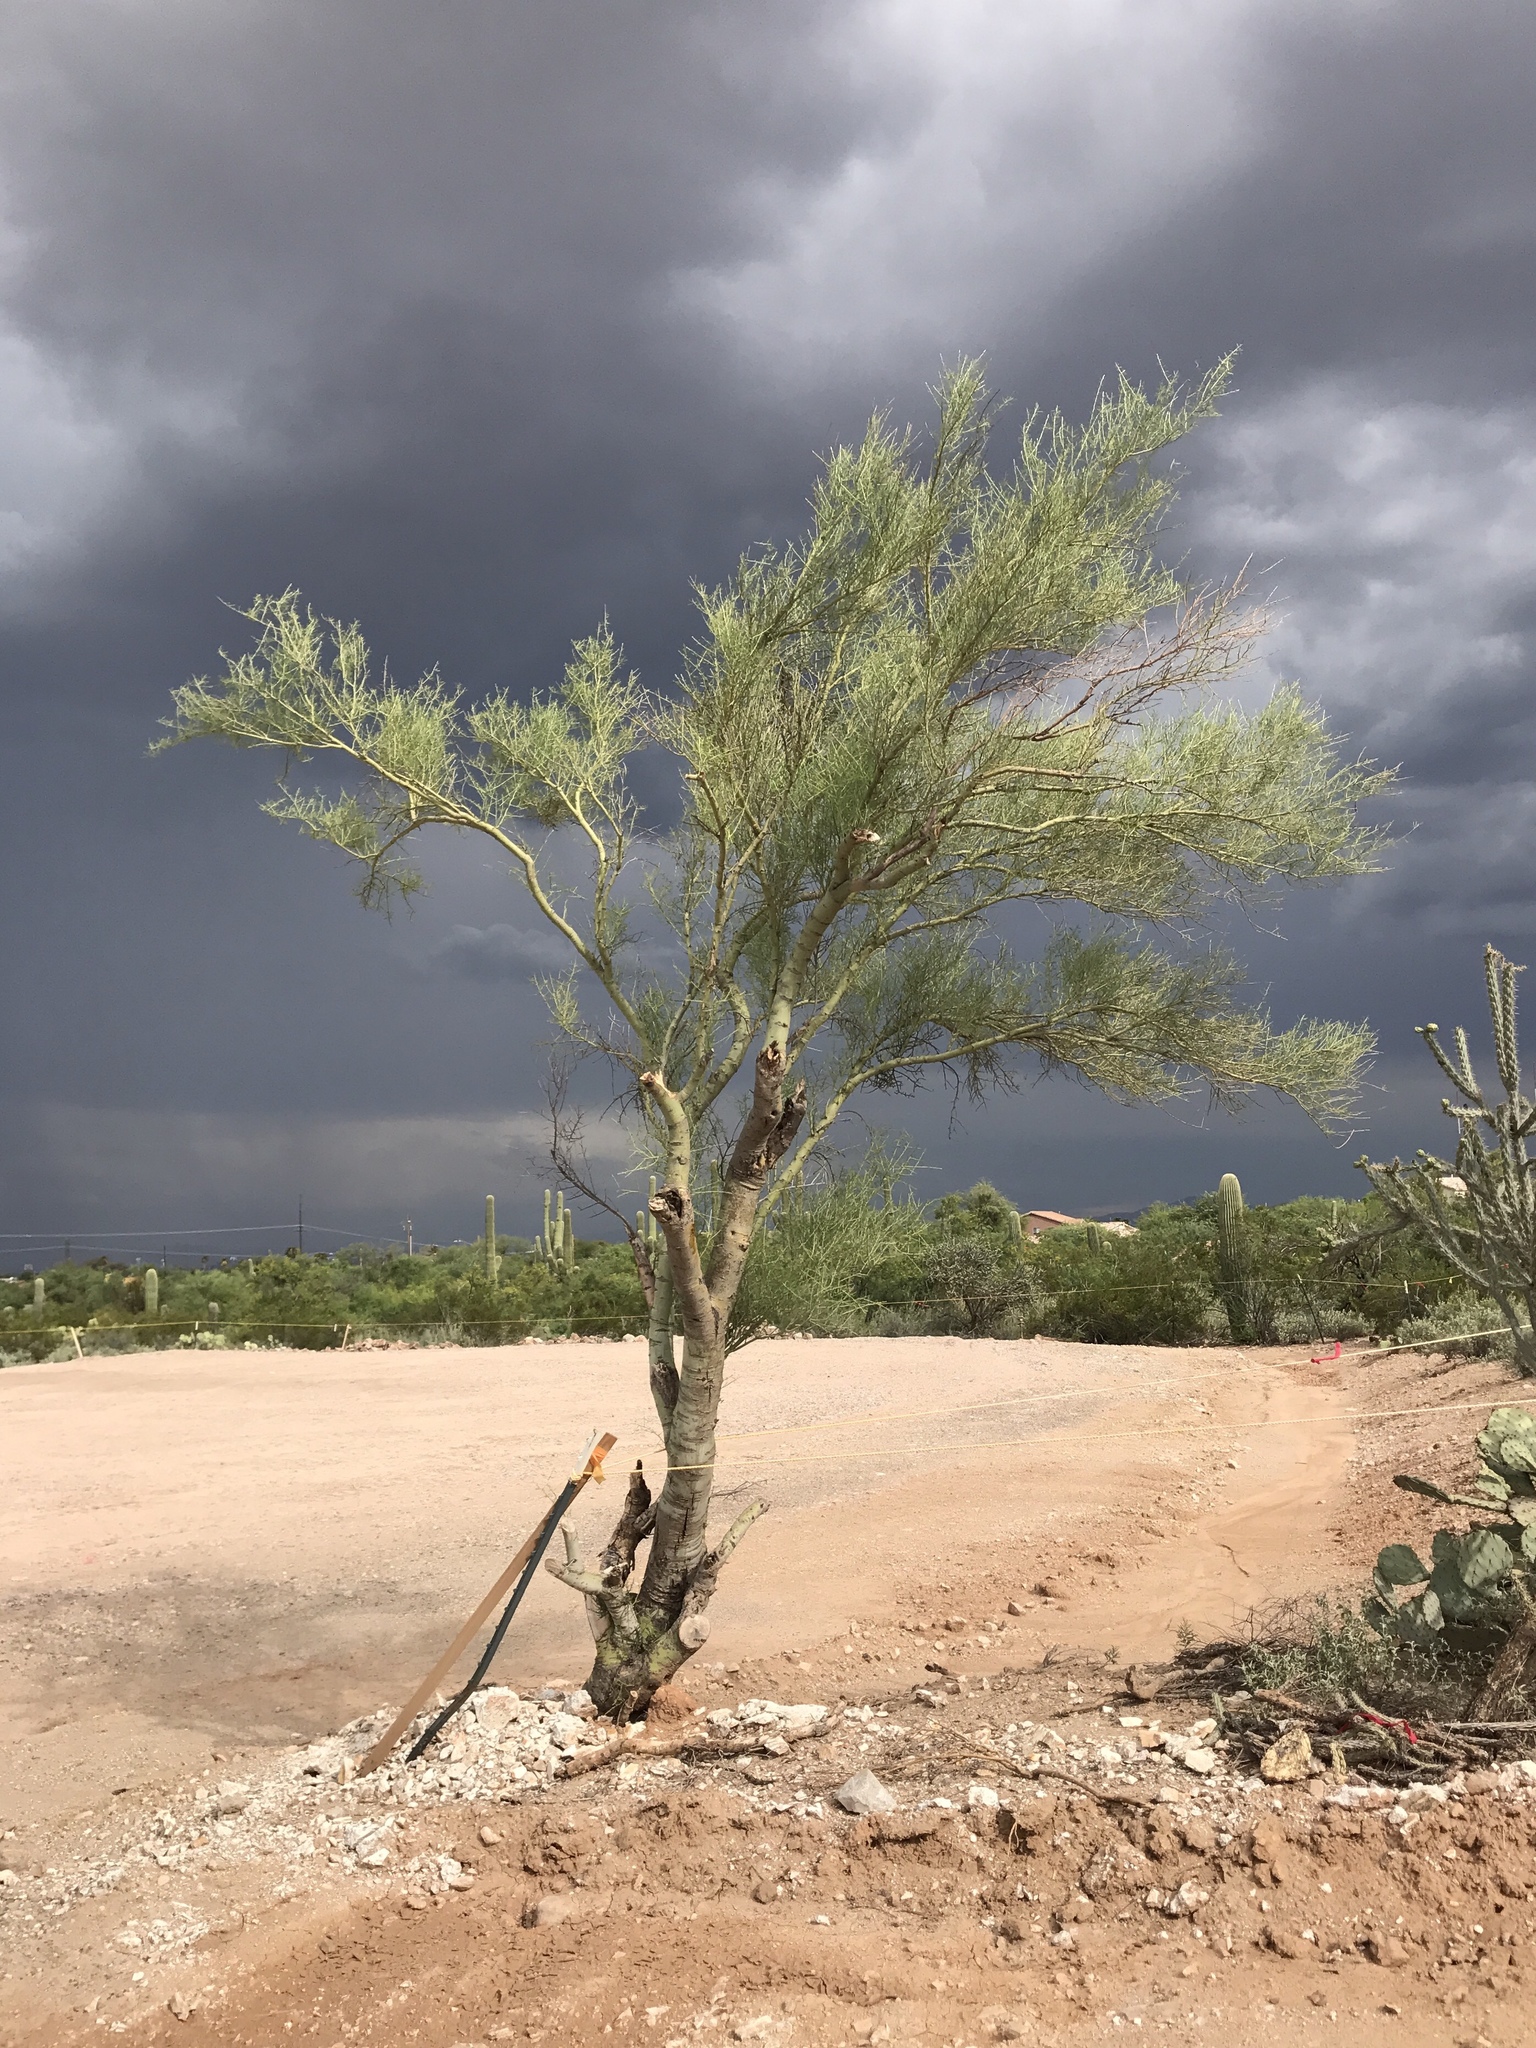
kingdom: Plantae
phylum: Tracheophyta
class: Magnoliopsida
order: Fabales
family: Fabaceae
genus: Parkinsonia
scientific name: Parkinsonia microphylla
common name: Yellow paloverde
